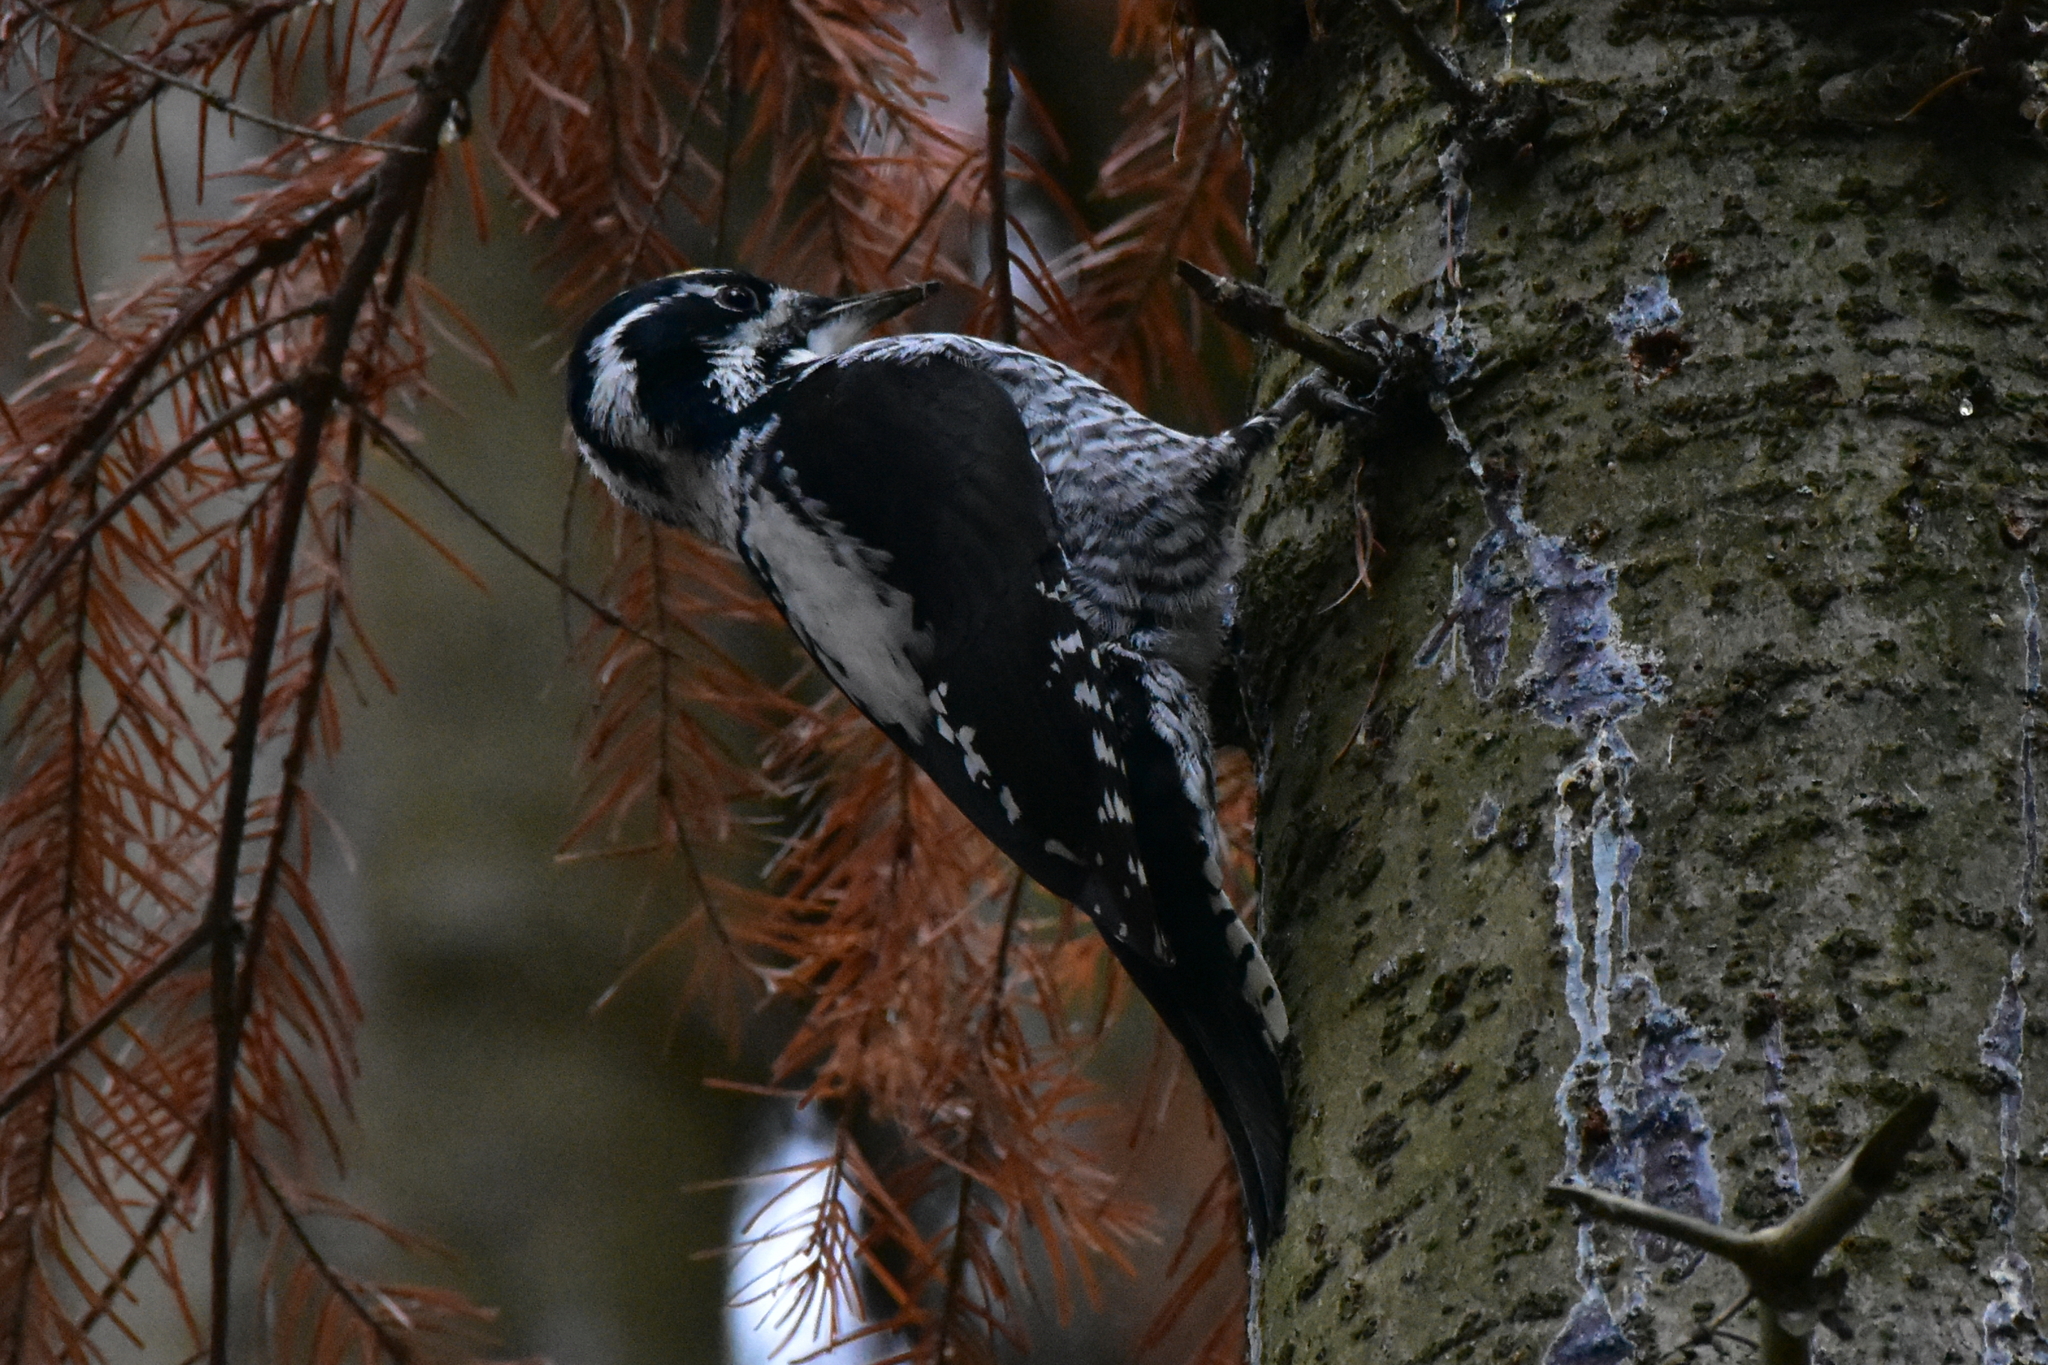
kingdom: Animalia
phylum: Chordata
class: Aves
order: Piciformes
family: Picidae
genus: Picoides
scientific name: Picoides tridactylus
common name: Eurasian three-toed woodpecker
